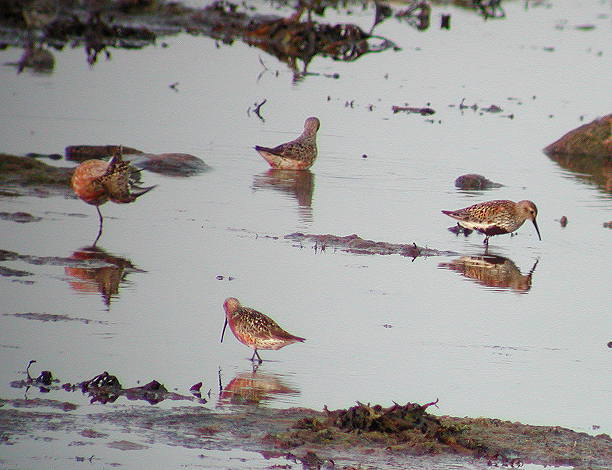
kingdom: Animalia
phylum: Chordata
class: Aves
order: Charadriiformes
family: Scolopacidae
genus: Calidris
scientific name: Calidris ferruginea
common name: Curlew sandpiper
